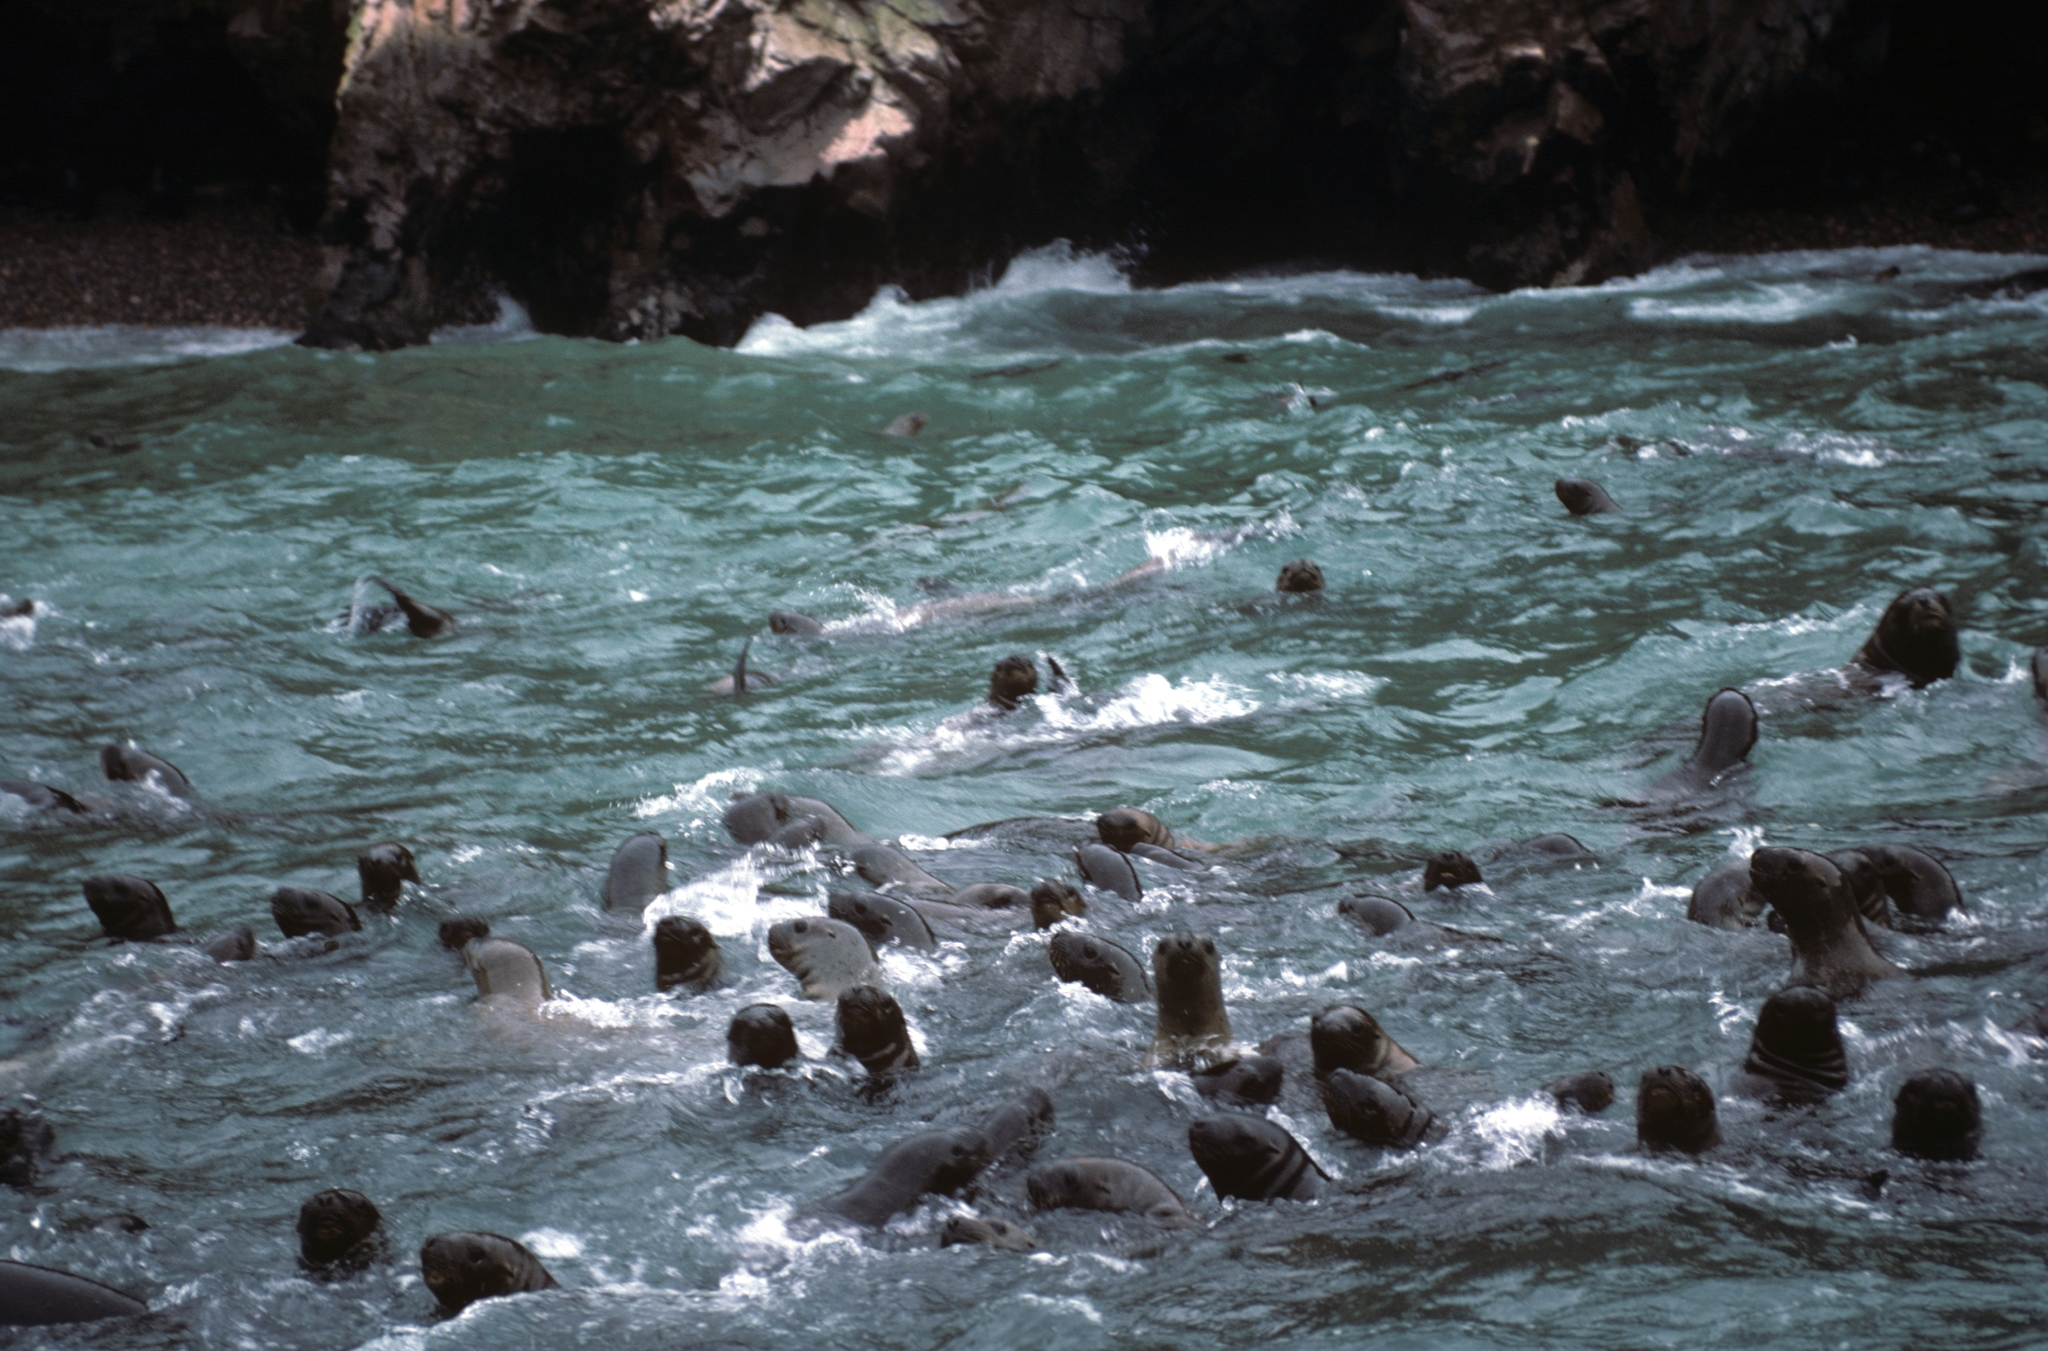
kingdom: Animalia
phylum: Chordata
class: Mammalia
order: Carnivora
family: Otariidae
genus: Otaria
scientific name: Otaria byronia
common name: South american sea lion
